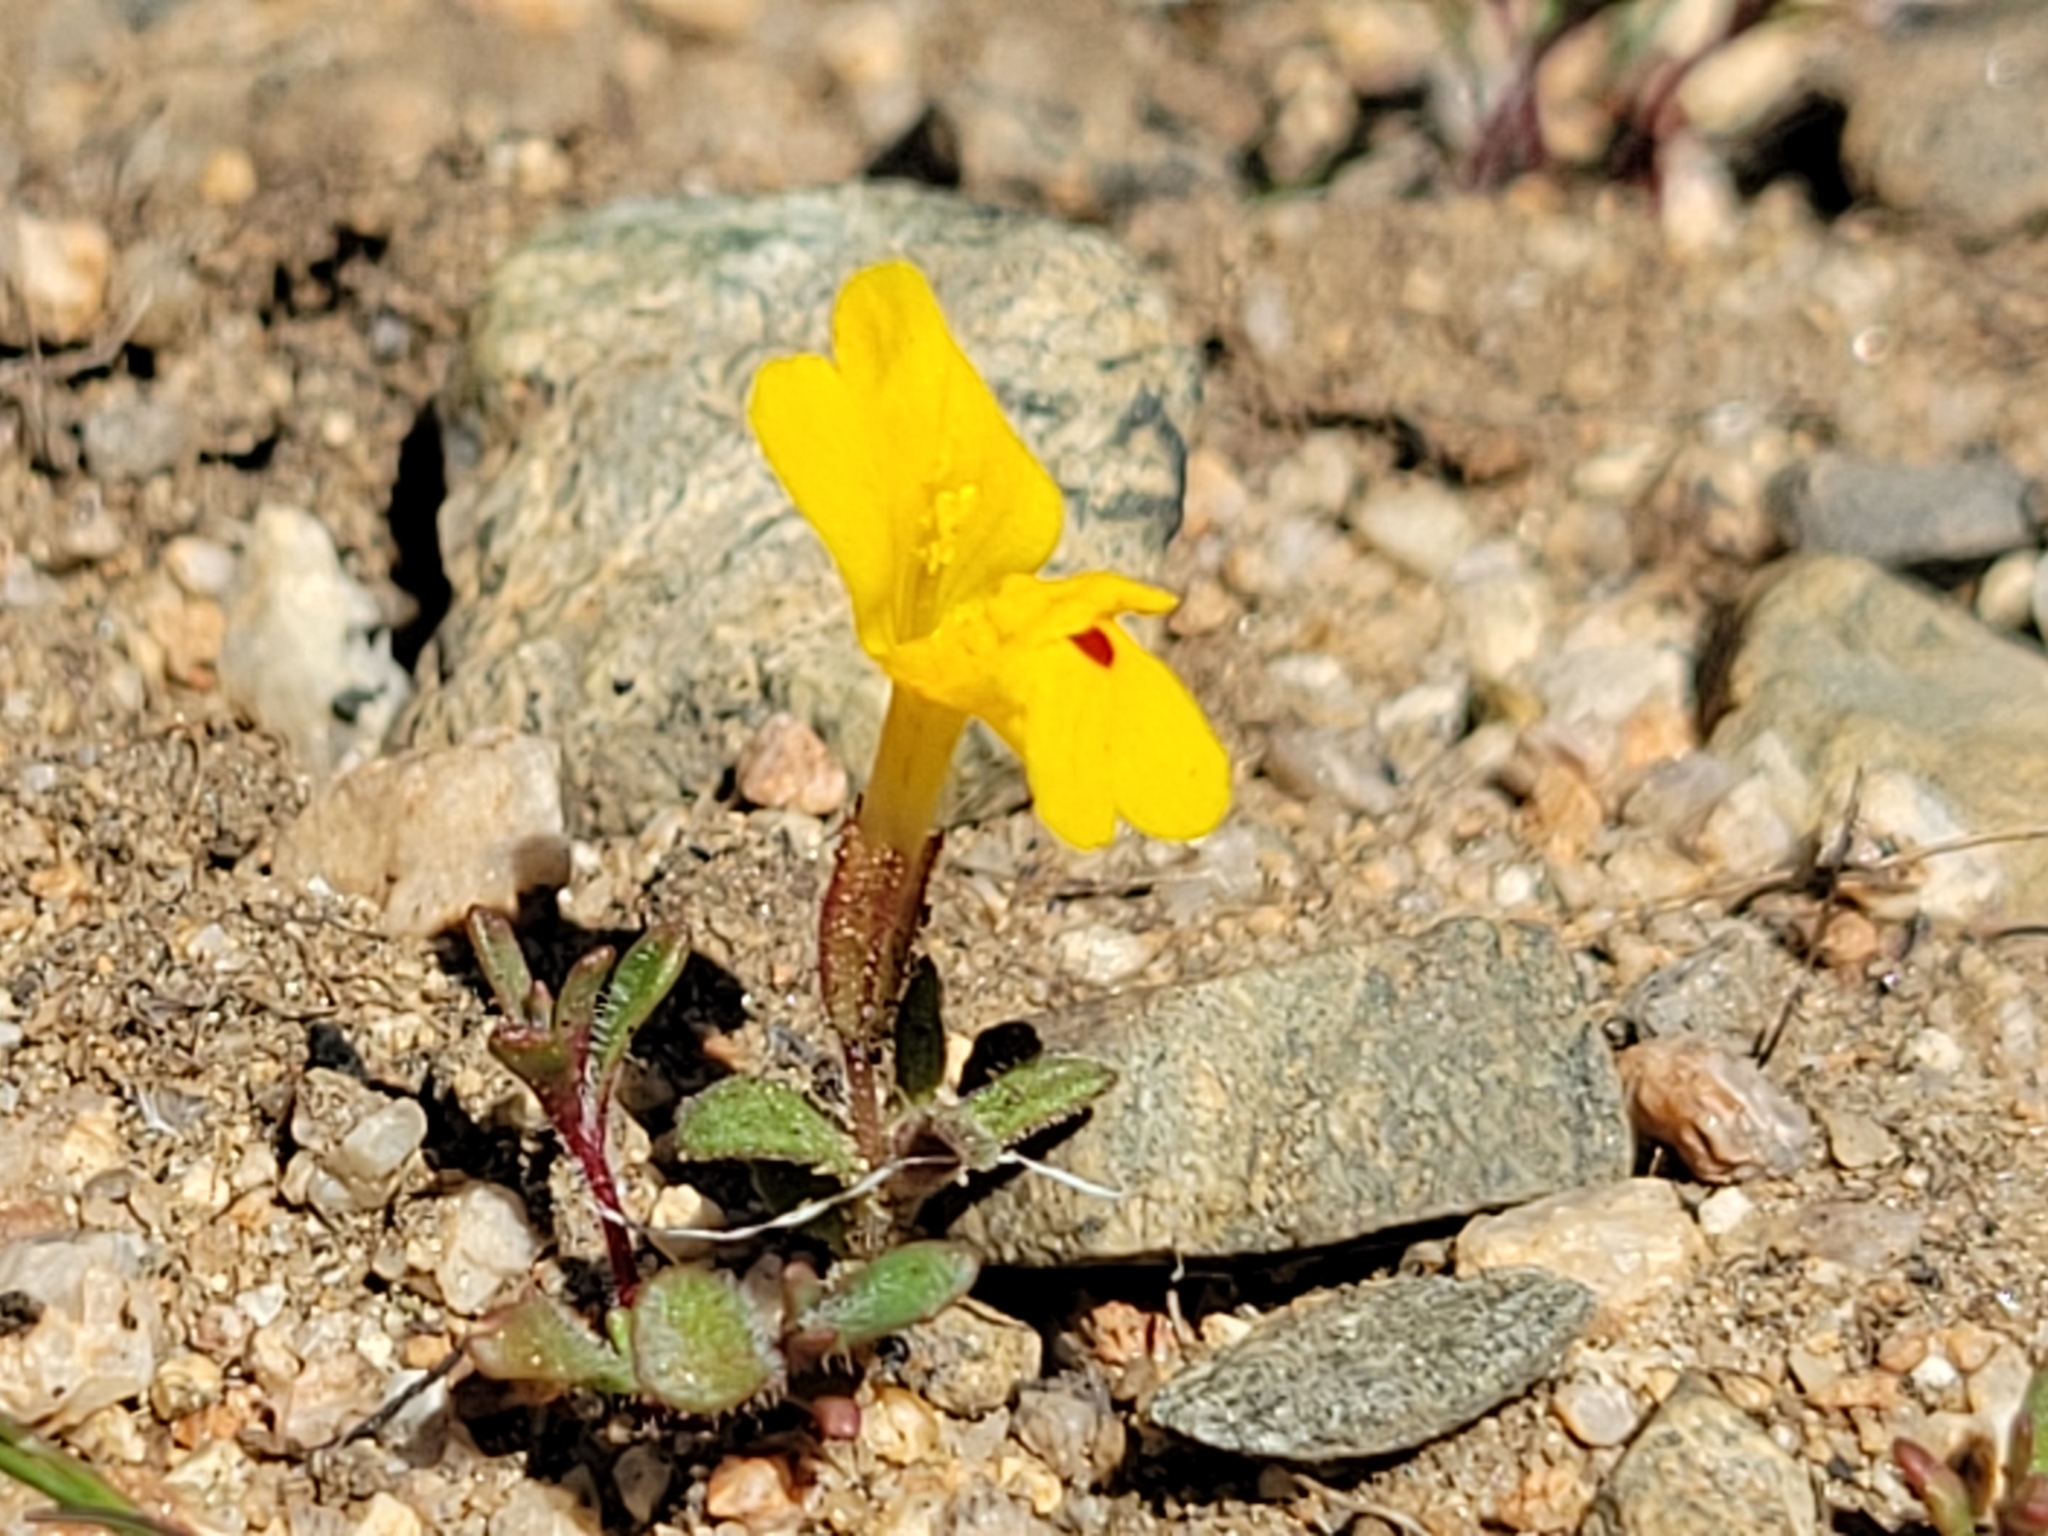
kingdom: Plantae
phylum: Tracheophyta
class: Magnoliopsida
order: Lamiales
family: Phrymaceae
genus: Erythranthe
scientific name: Erythranthe carsonensis
